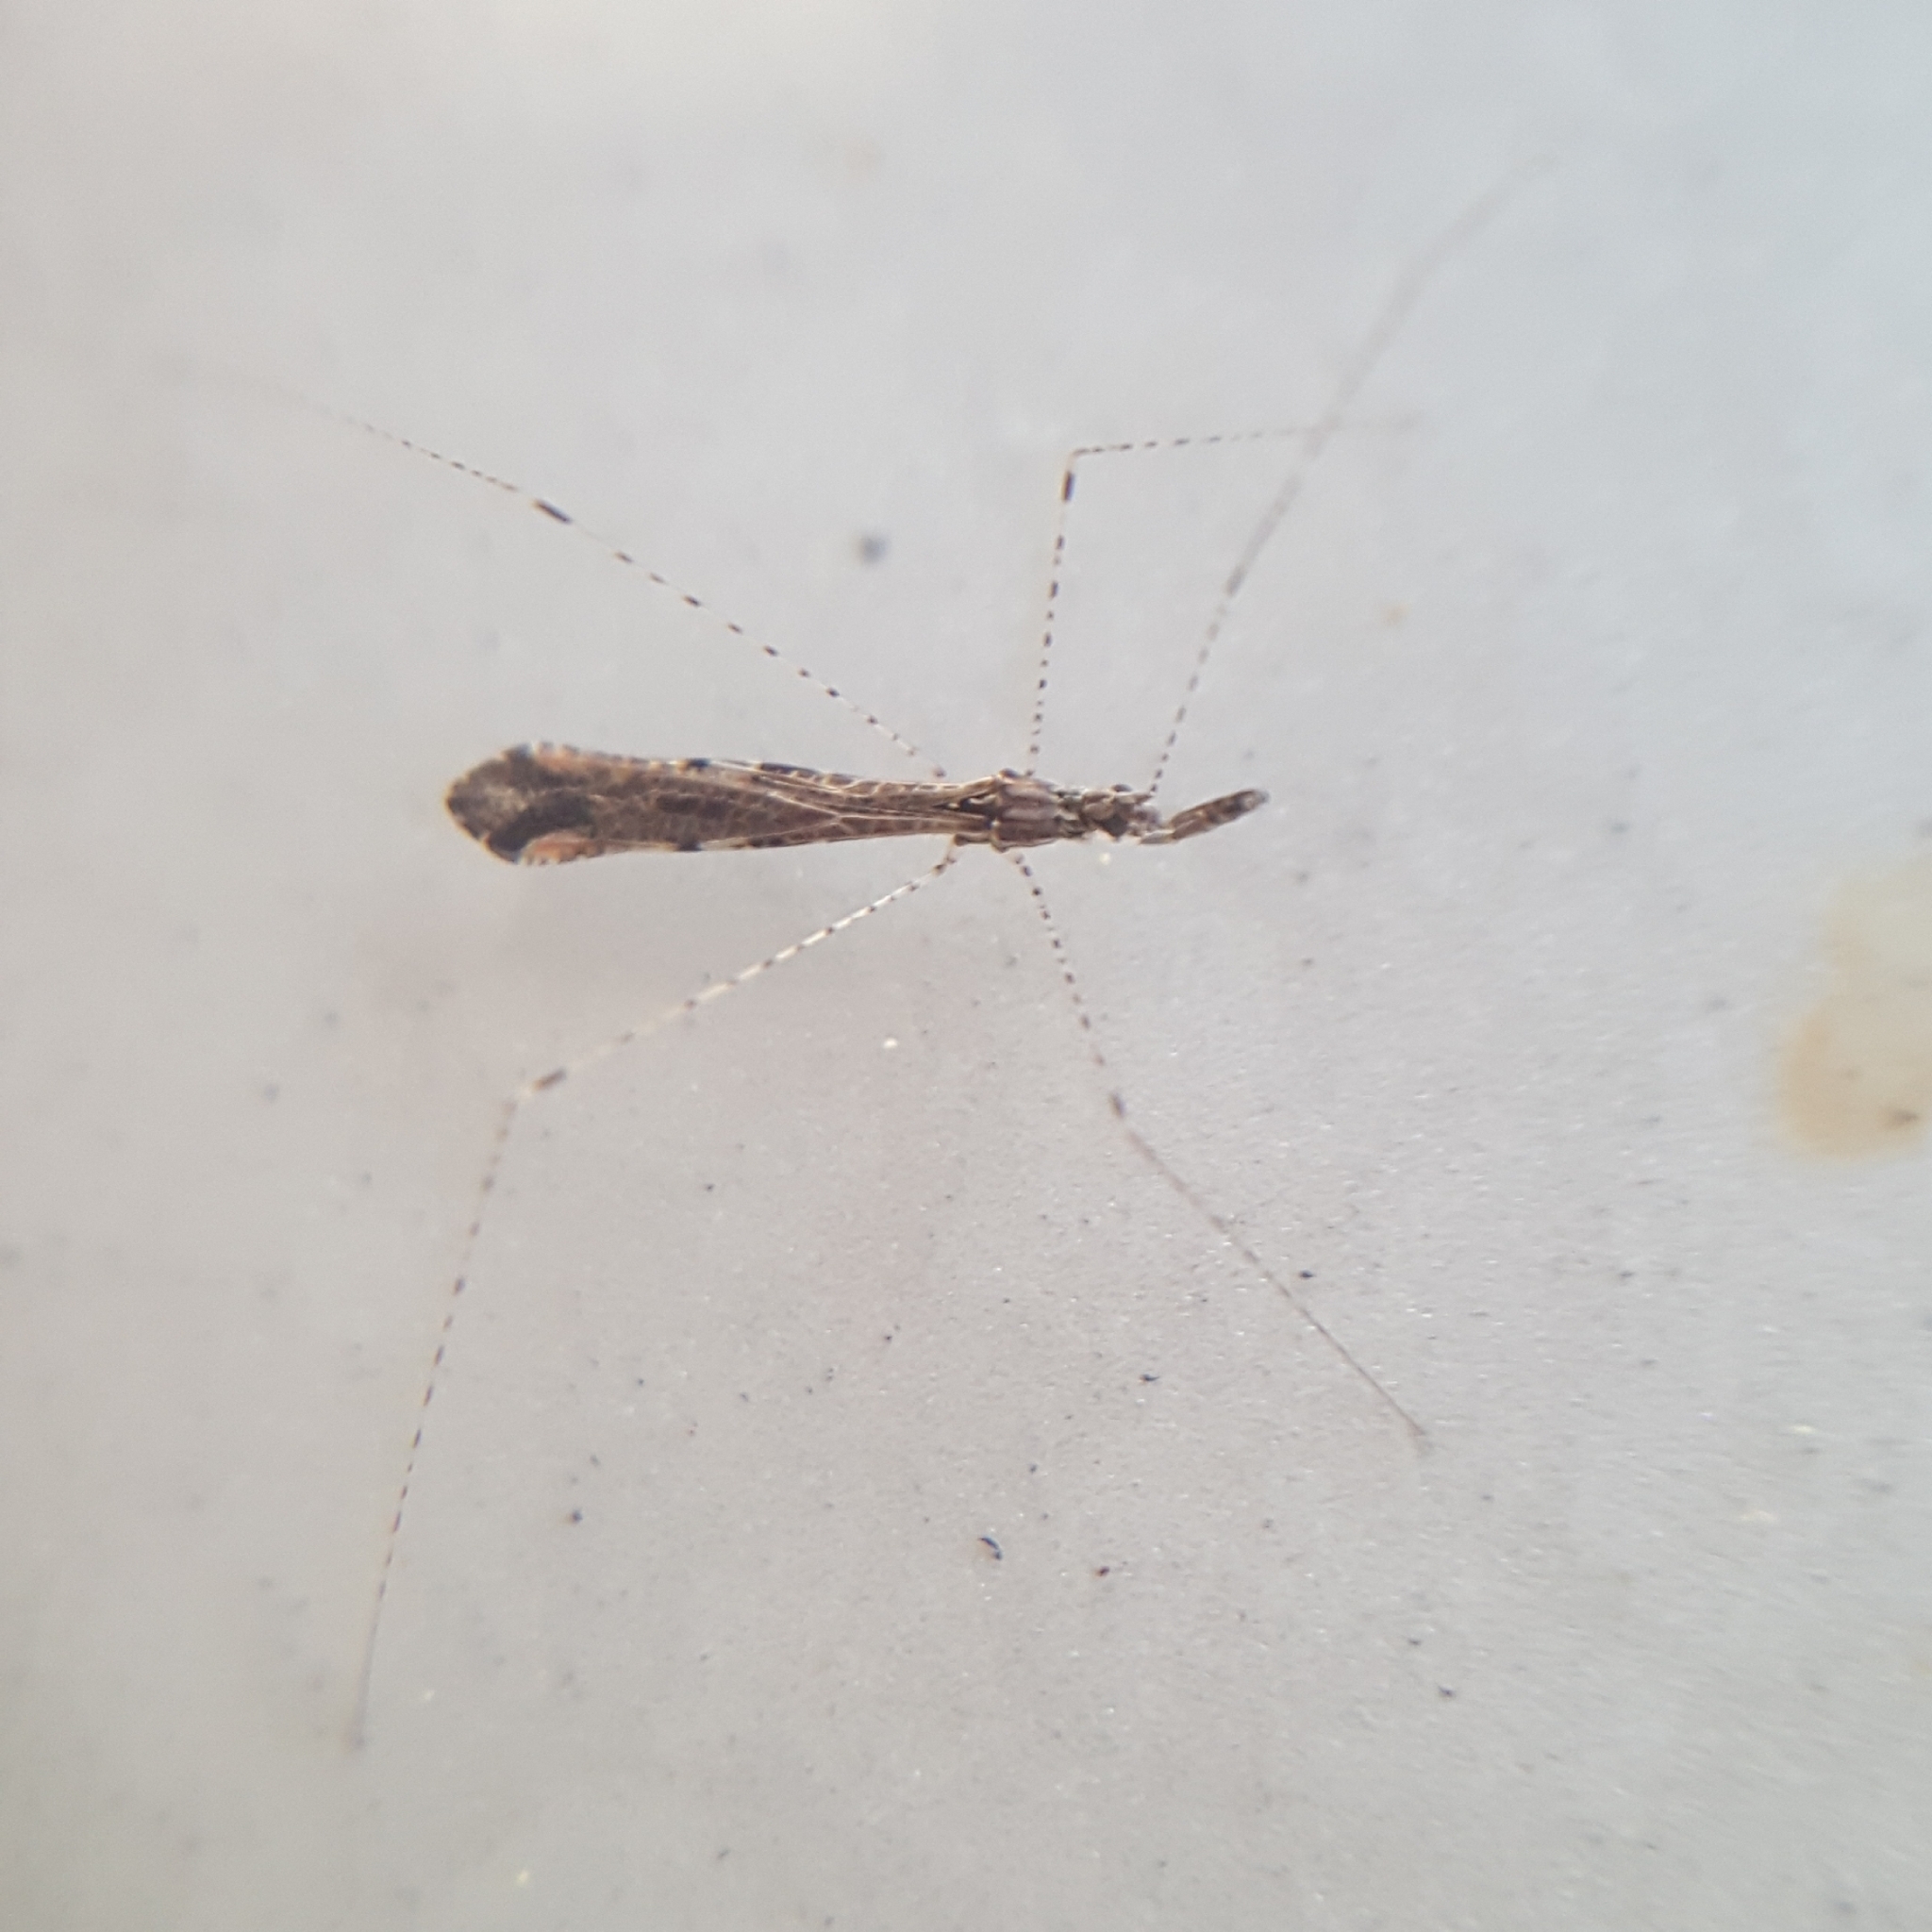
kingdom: Animalia
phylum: Arthropoda
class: Insecta
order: Hemiptera
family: Reduviidae
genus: Empicoris
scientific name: Empicoris rubromaculatus
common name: Thread-legged bug
